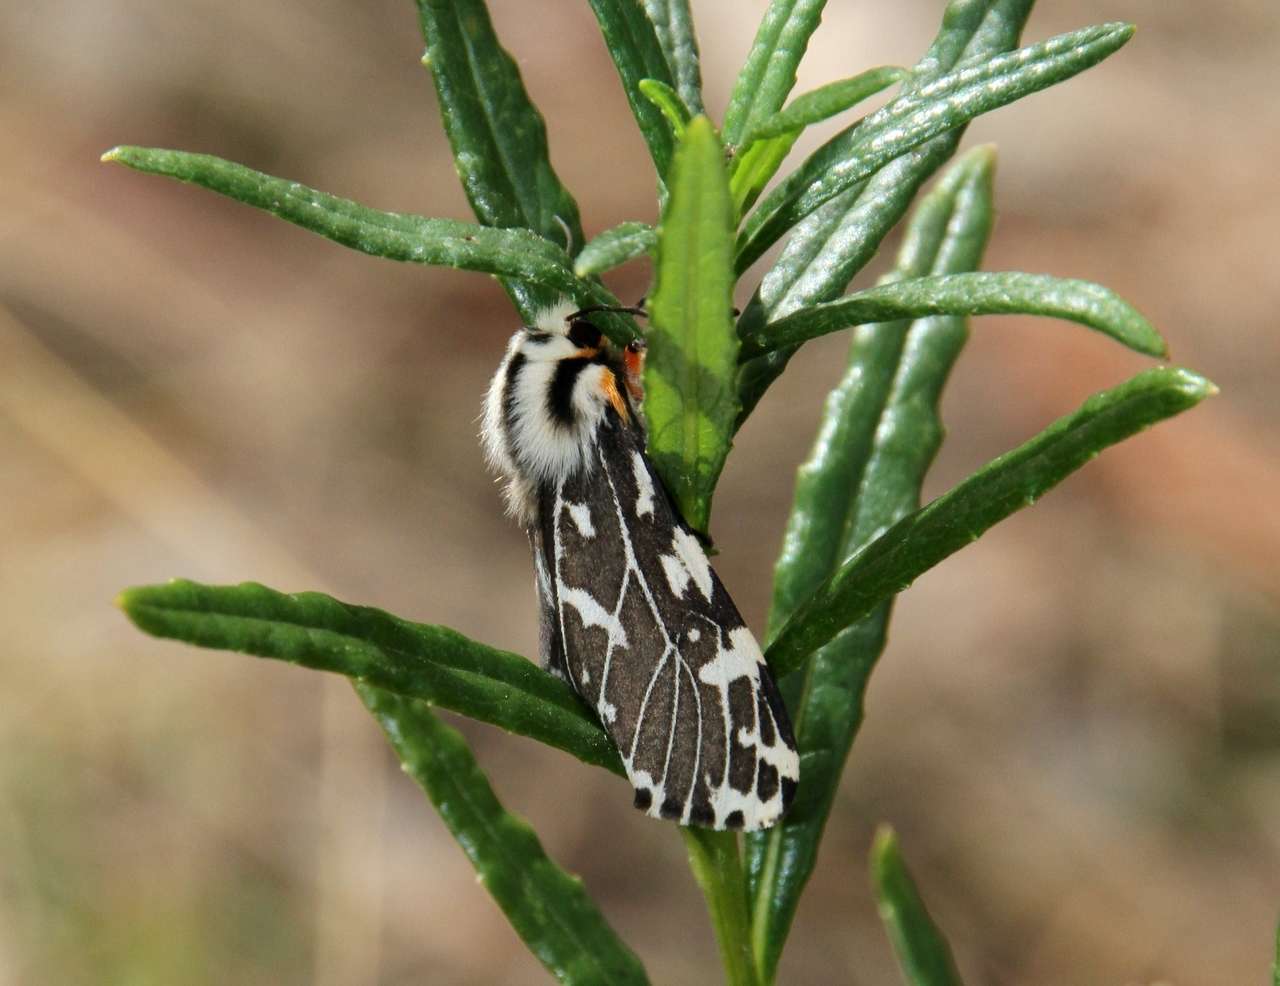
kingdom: Animalia
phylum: Arthropoda
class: Insecta
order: Lepidoptera
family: Erebidae
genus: Ardices
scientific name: Ardices glatignyi
